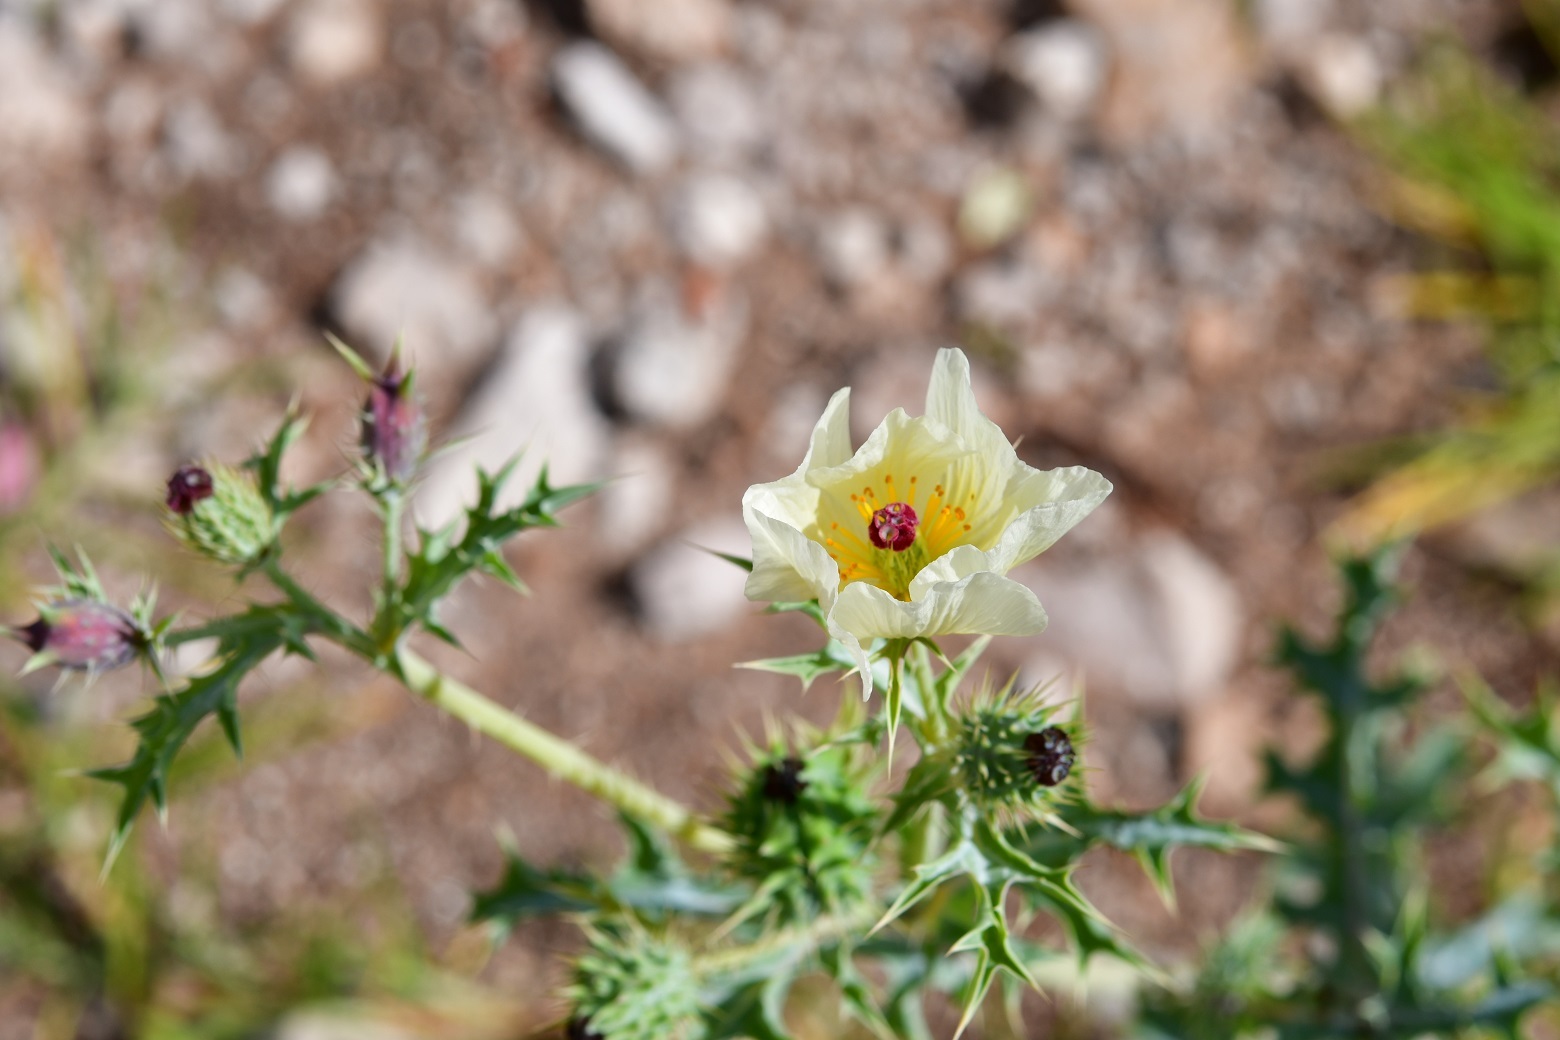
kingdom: Plantae
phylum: Tracheophyta
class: Magnoliopsida
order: Ranunculales
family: Papaveraceae
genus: Argemone
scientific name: Argemone ochroleuca
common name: White-flower mexican-poppy
